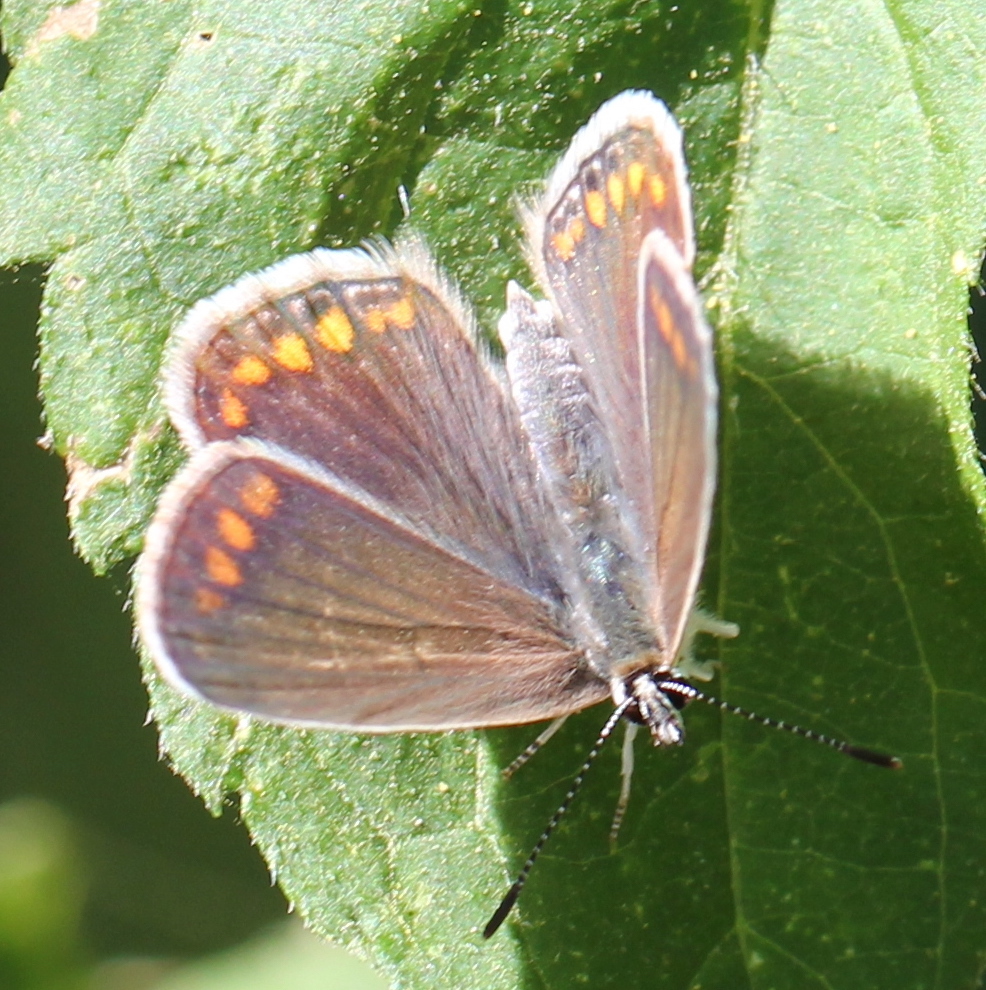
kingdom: Animalia
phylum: Arthropoda
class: Insecta
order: Lepidoptera
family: Lycaenidae
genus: Polyommatus
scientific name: Polyommatus icarus
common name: Common blue
